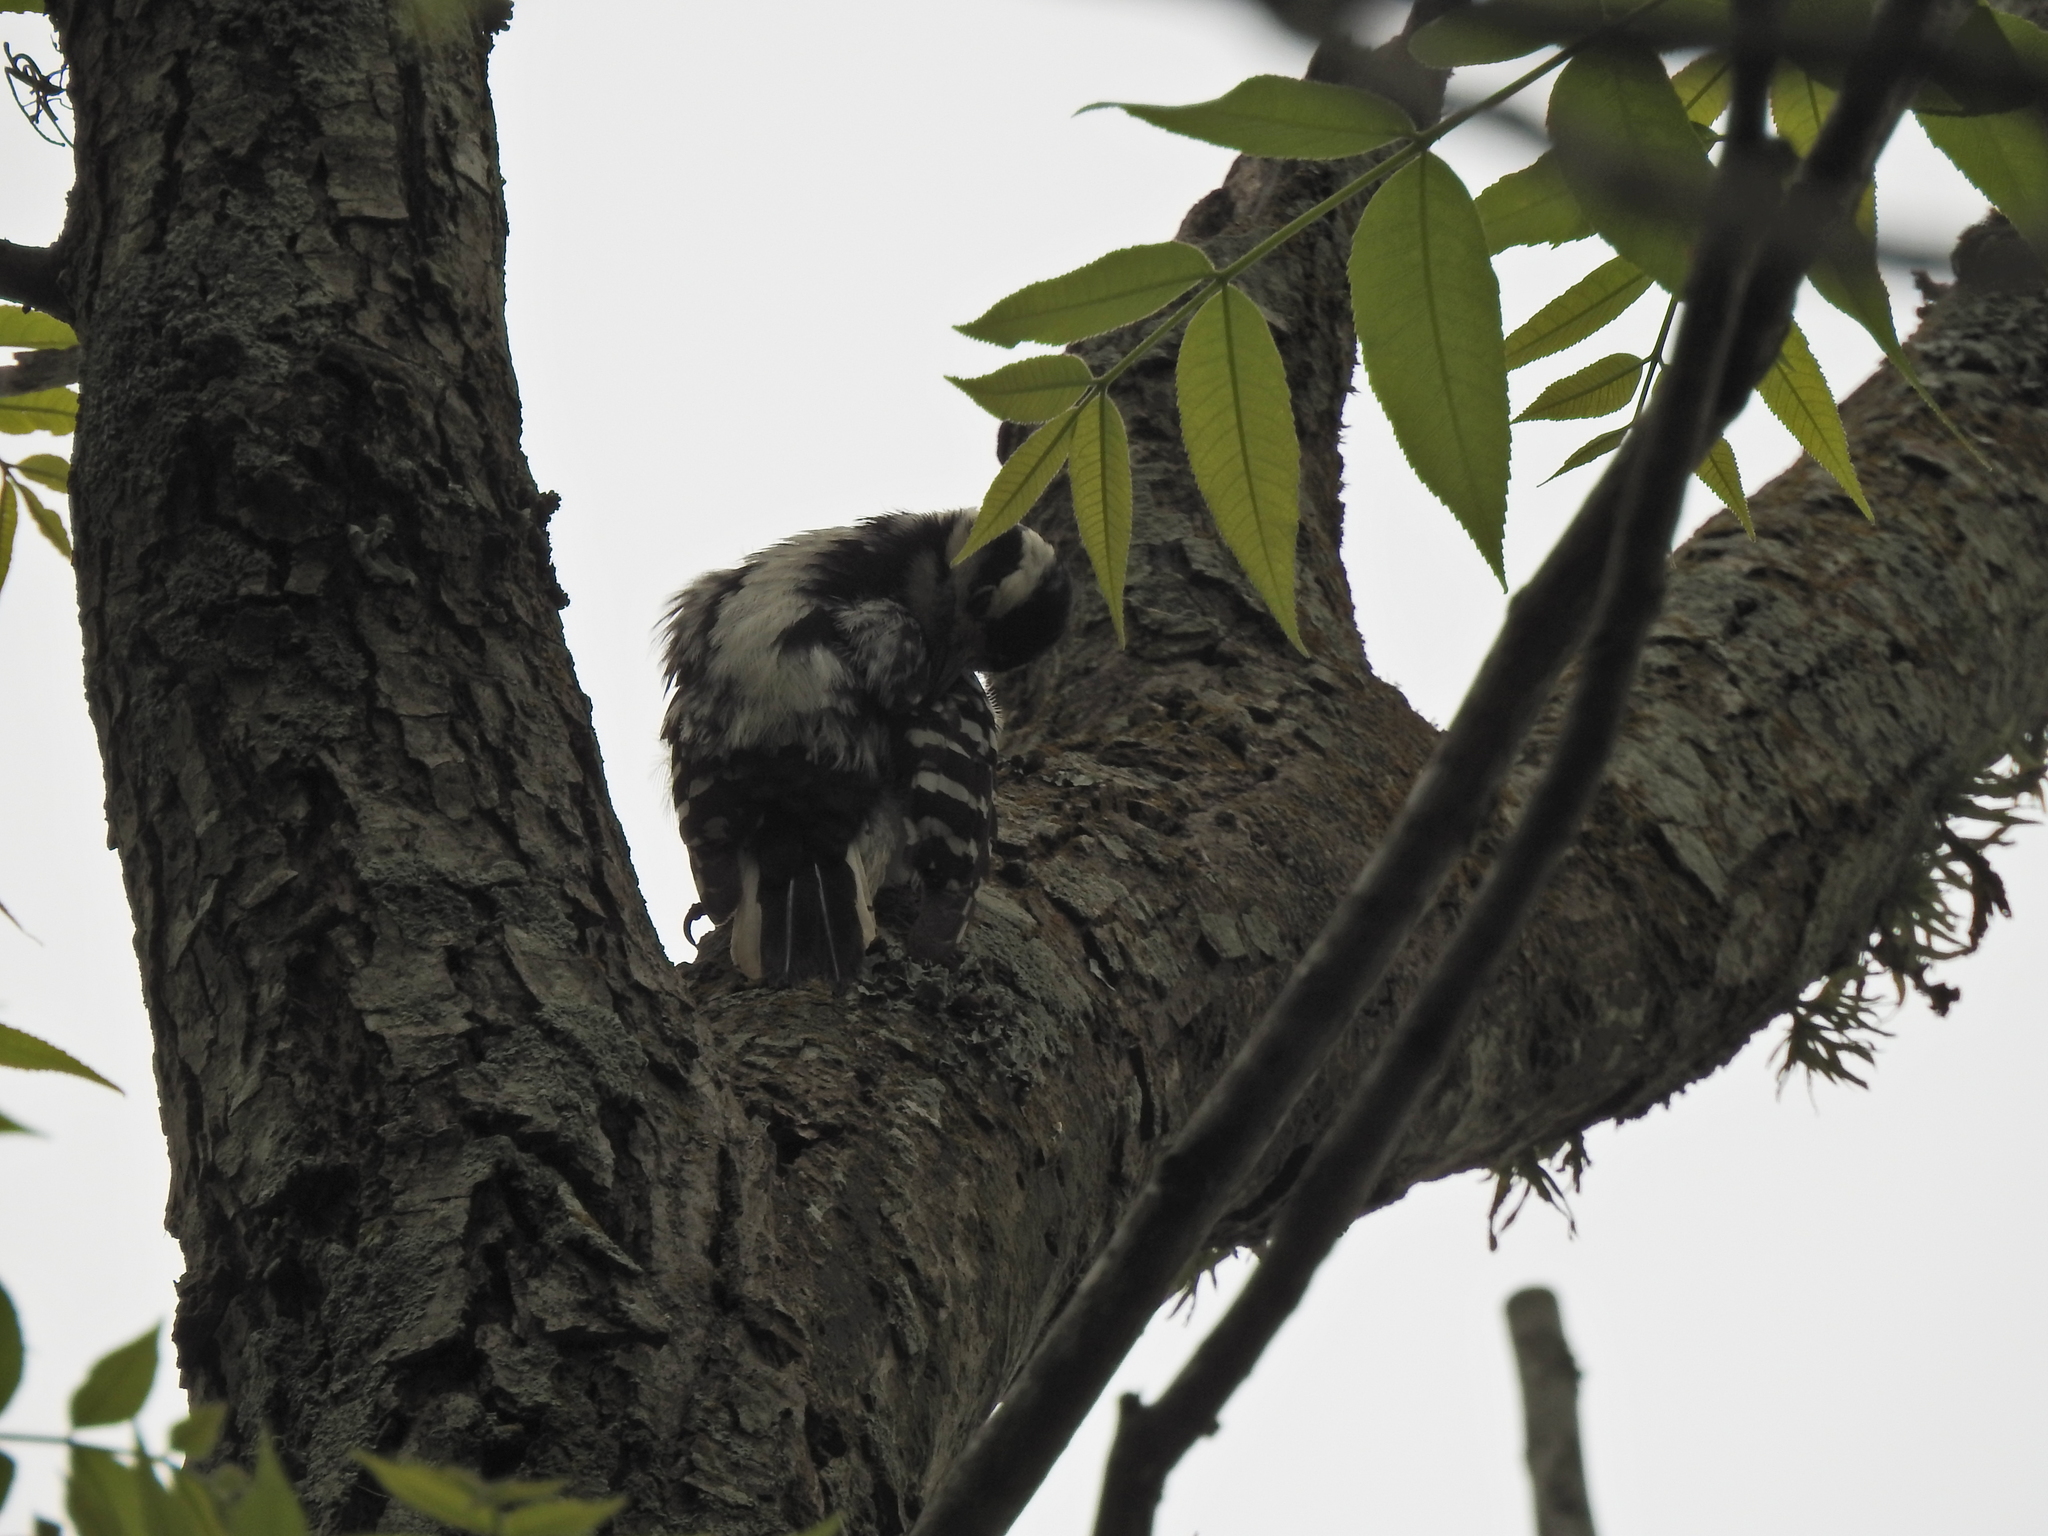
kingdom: Animalia
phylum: Chordata
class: Aves
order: Piciformes
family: Picidae
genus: Dryobates
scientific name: Dryobates pubescens
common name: Downy woodpecker
